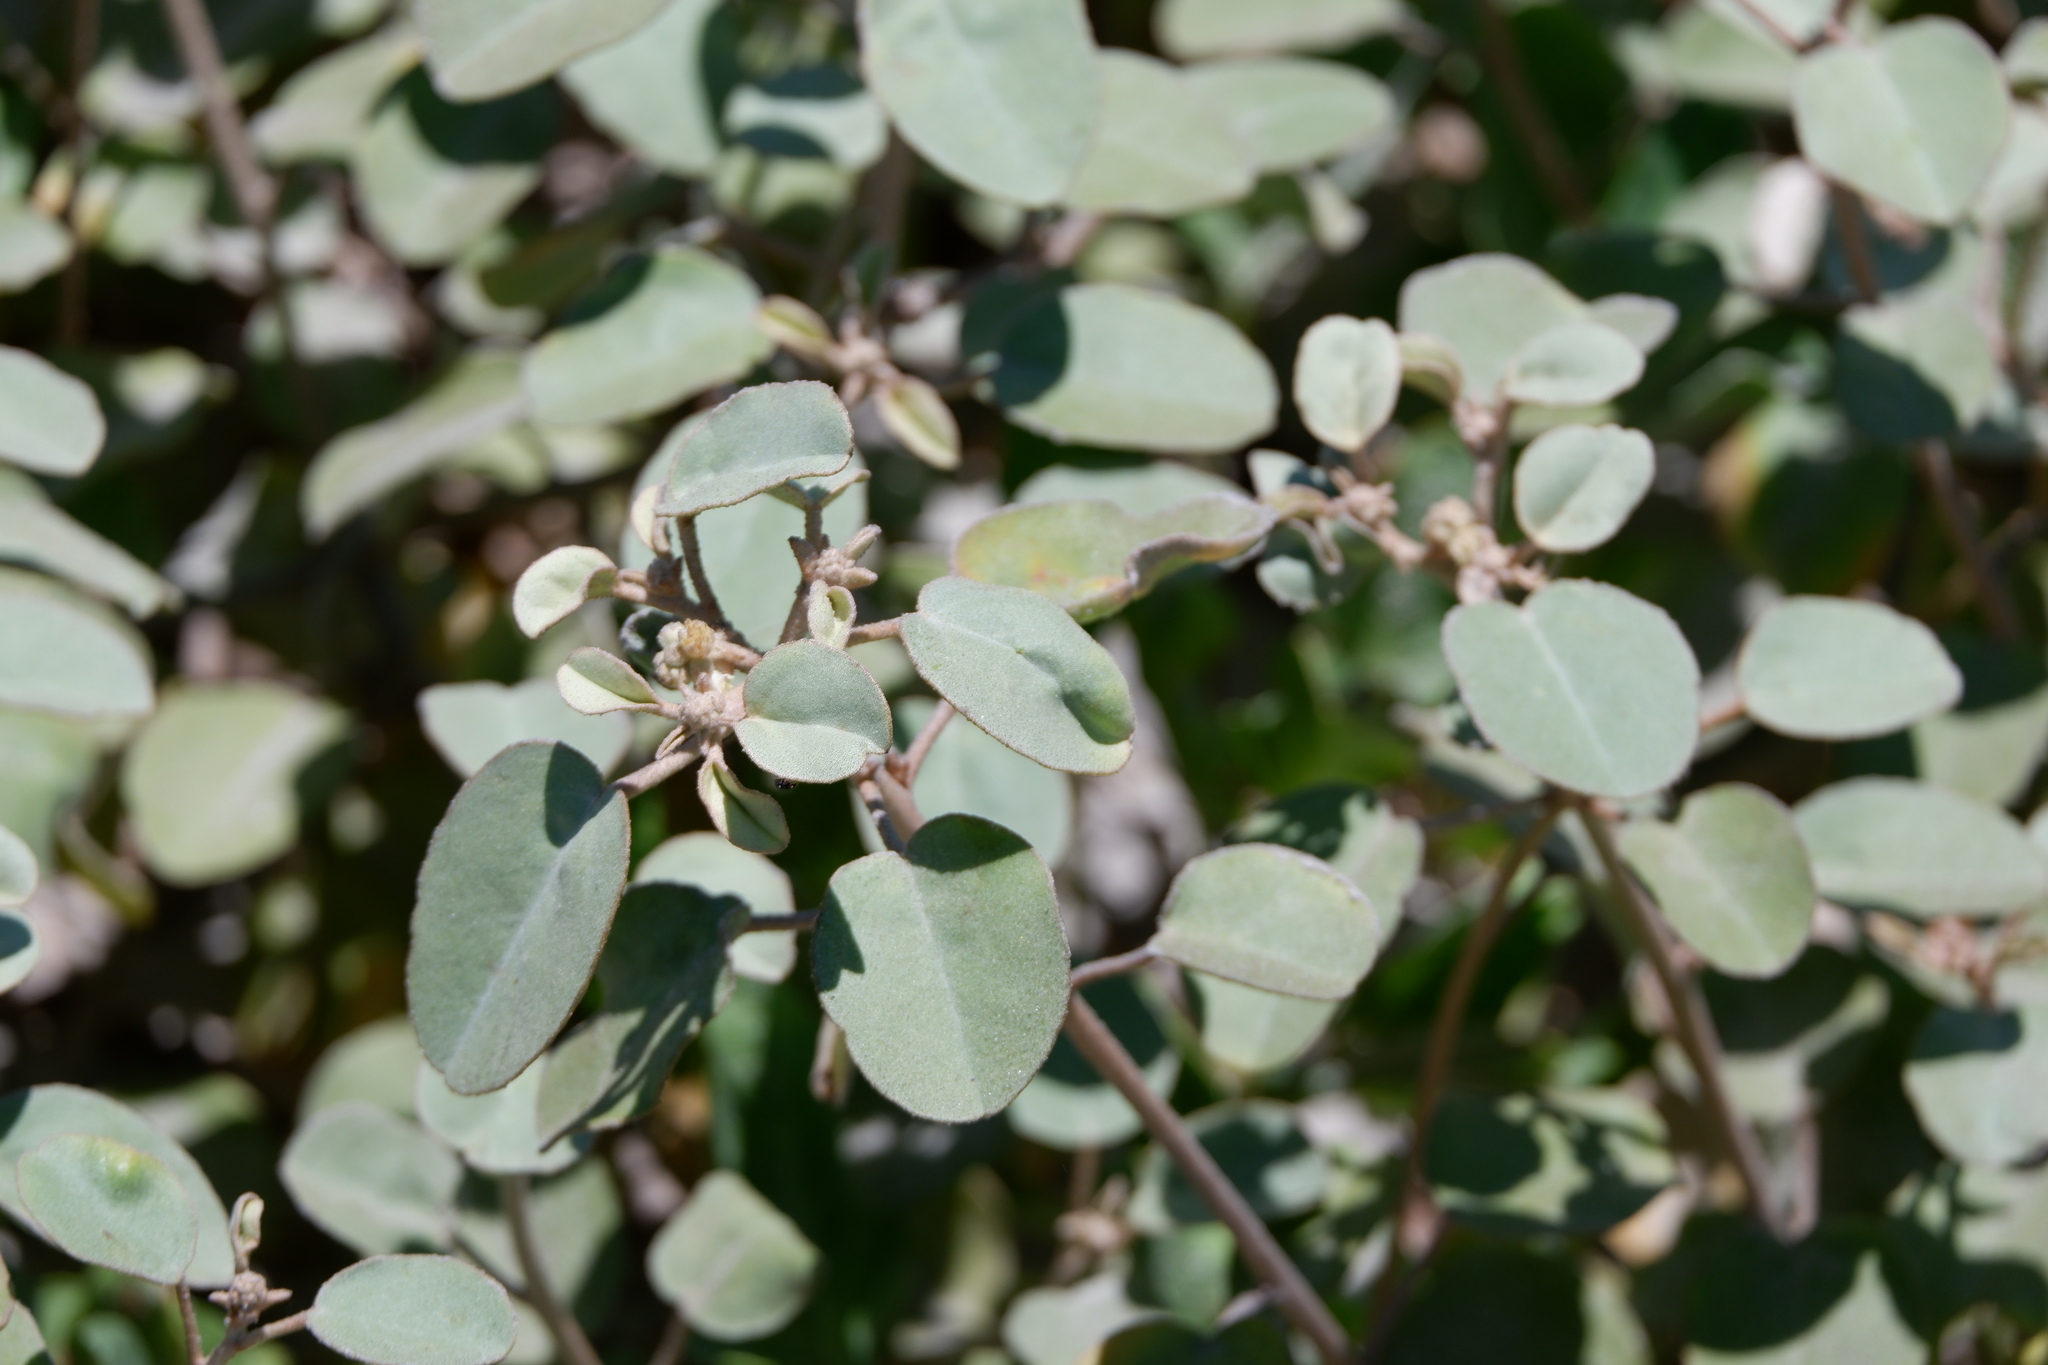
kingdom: Plantae
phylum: Tracheophyta
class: Magnoliopsida
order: Malpighiales
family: Euphorbiaceae
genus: Croton
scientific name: Croton punctatus
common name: Beach-tea
